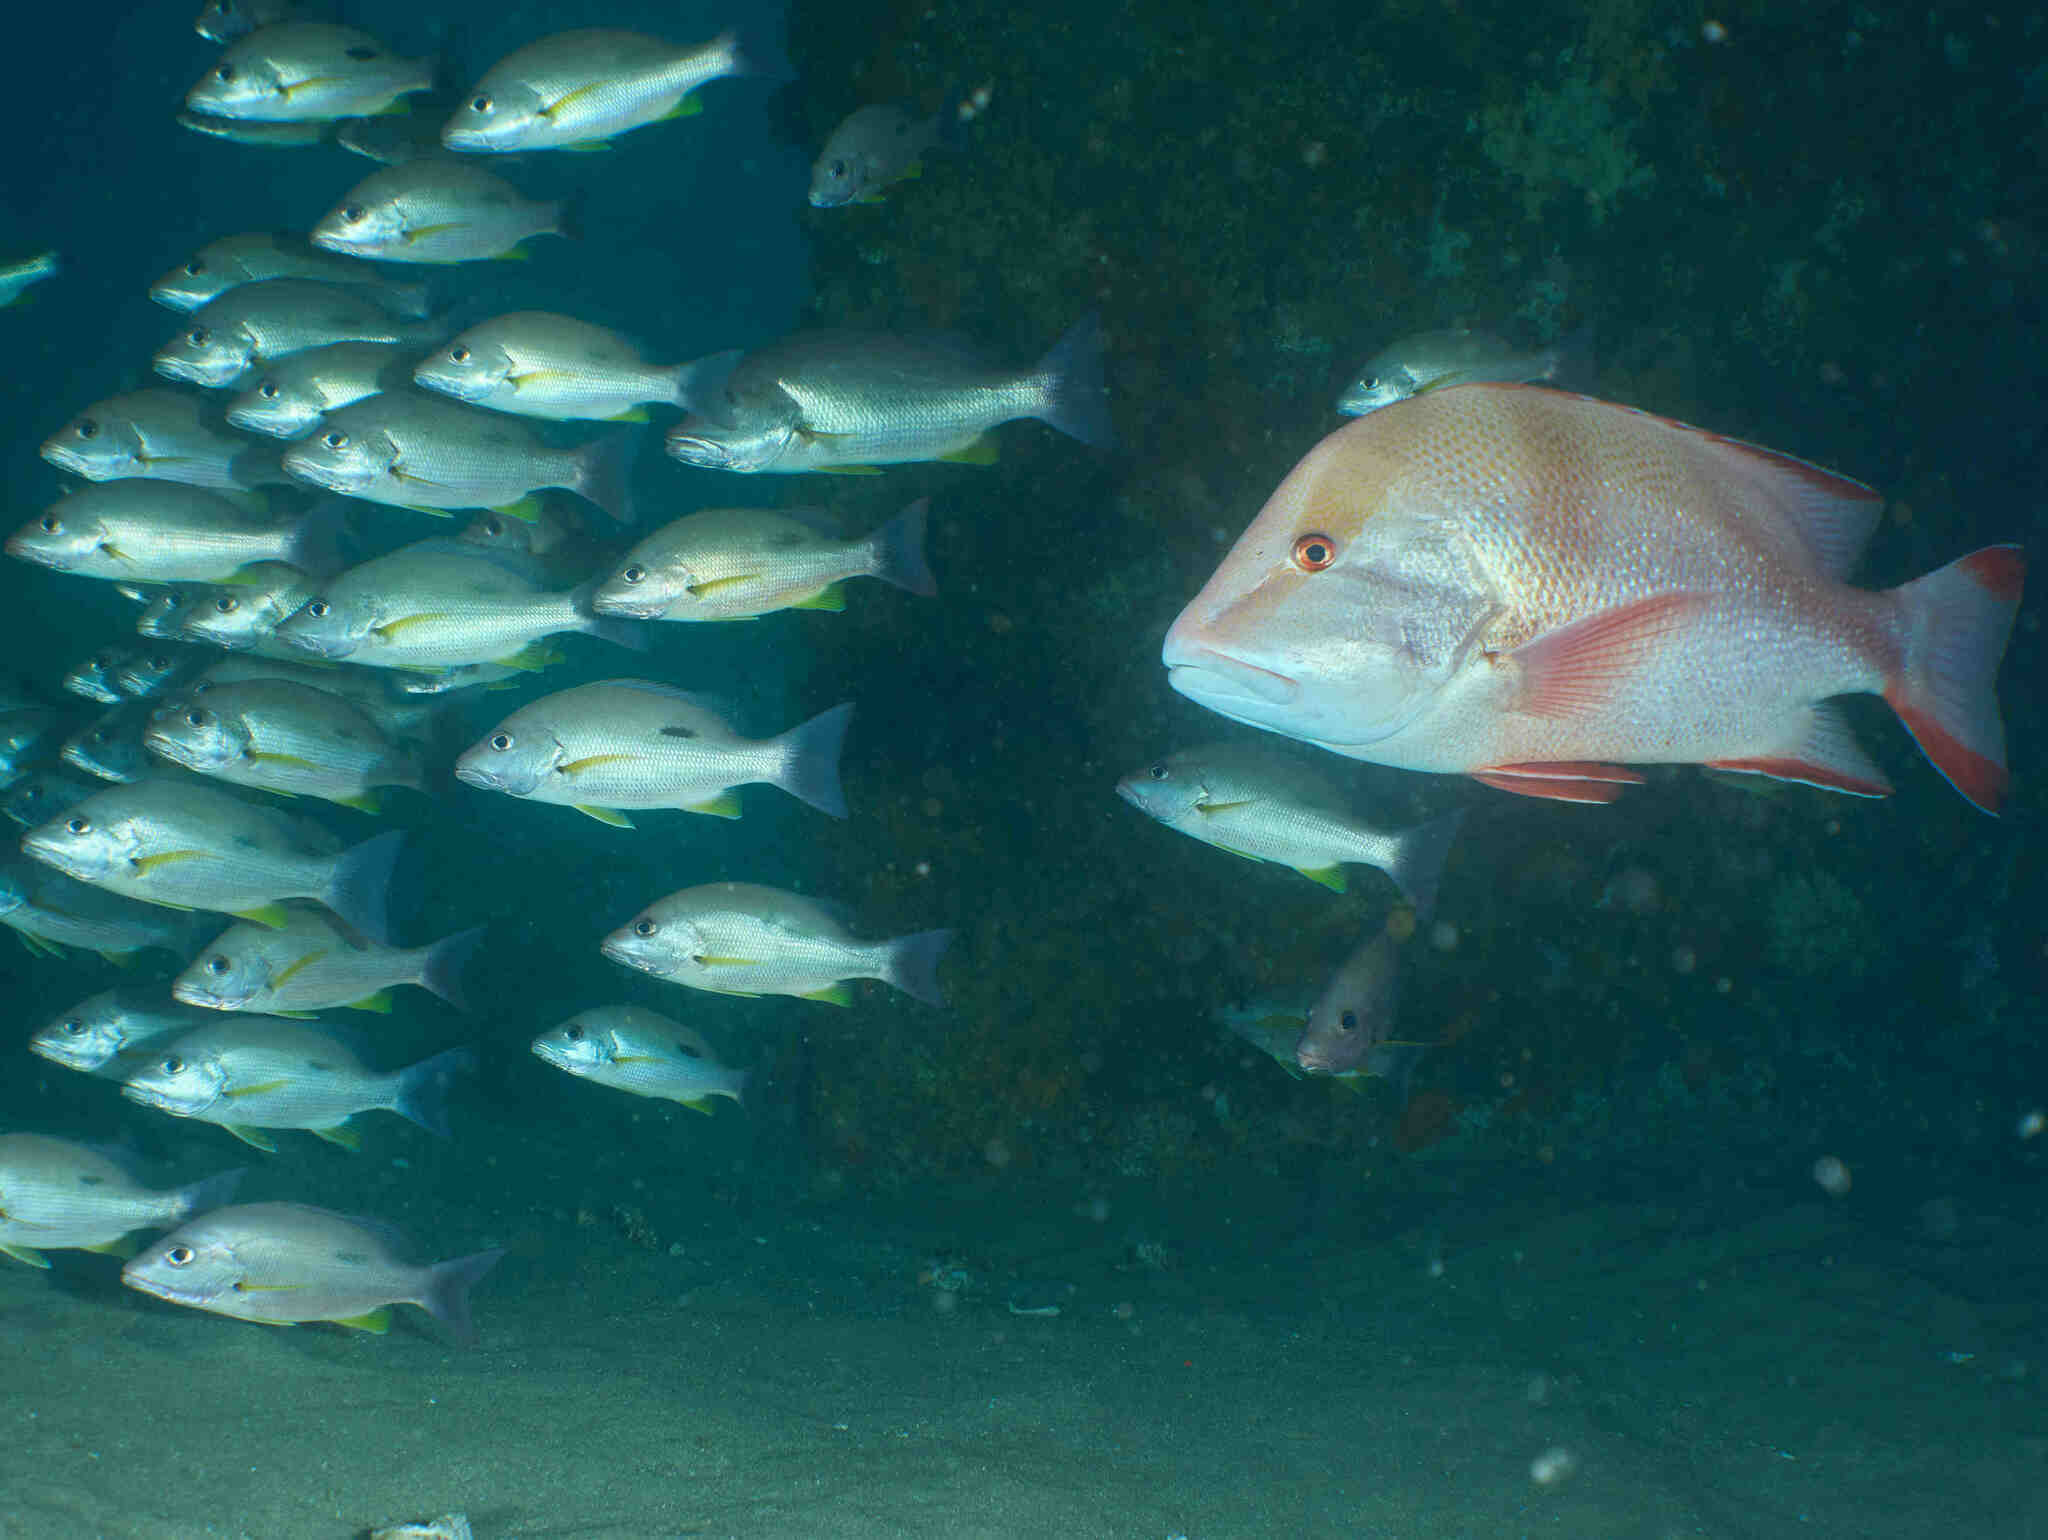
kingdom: Animalia
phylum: Chordata
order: Perciformes
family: Lutjanidae
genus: Lutjanus
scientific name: Lutjanus sebae
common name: Emperor red snapper
